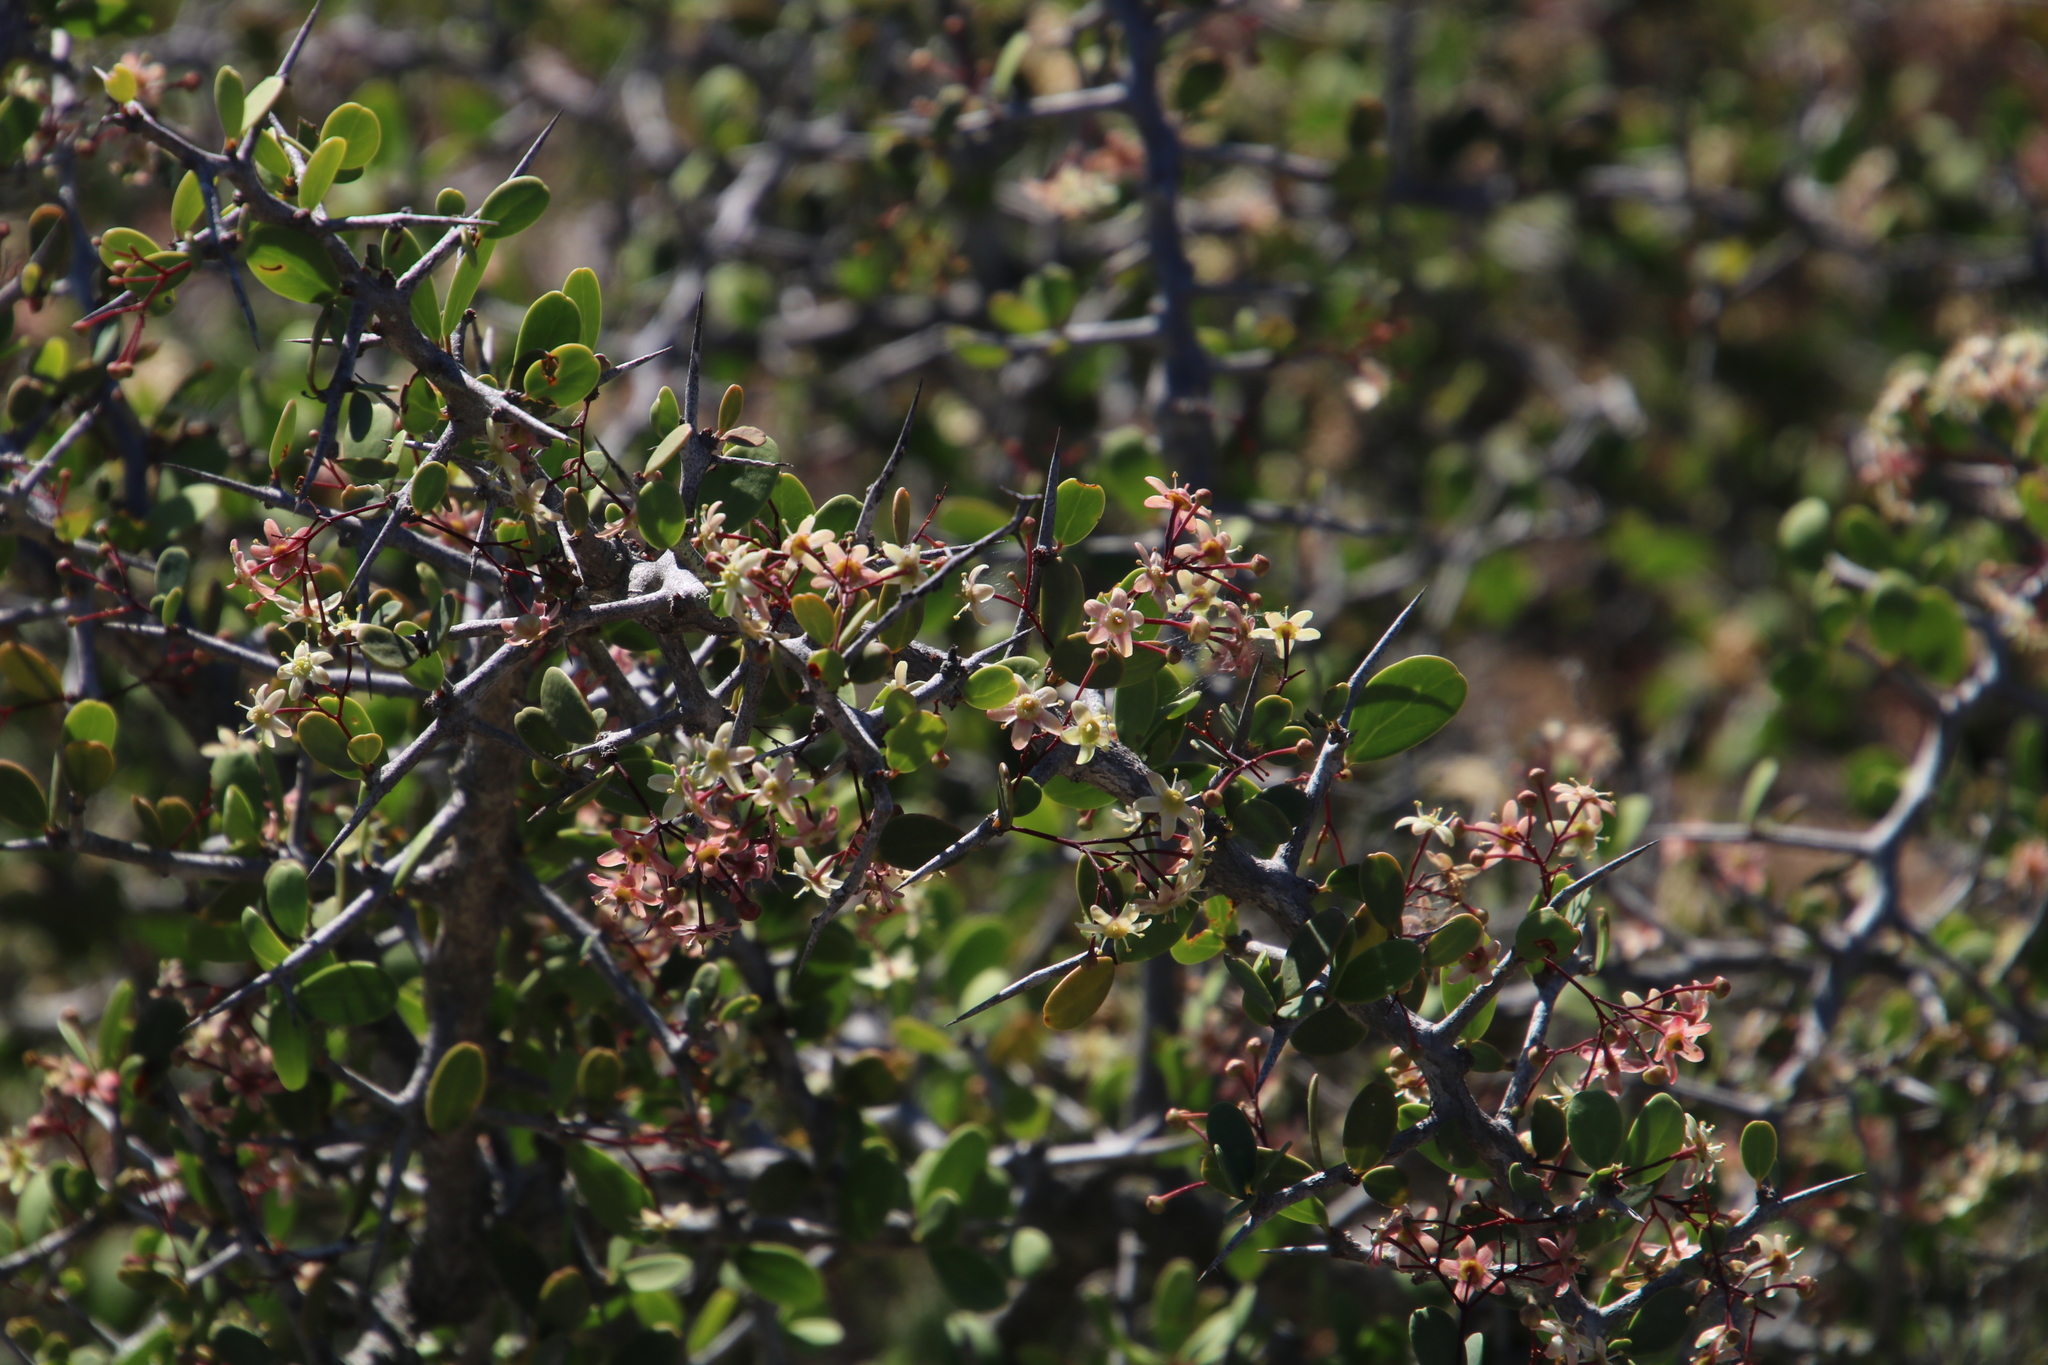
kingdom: Plantae
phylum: Tracheophyta
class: Magnoliopsida
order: Celastrales
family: Celastraceae
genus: Gloveria
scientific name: Gloveria integrifolia
